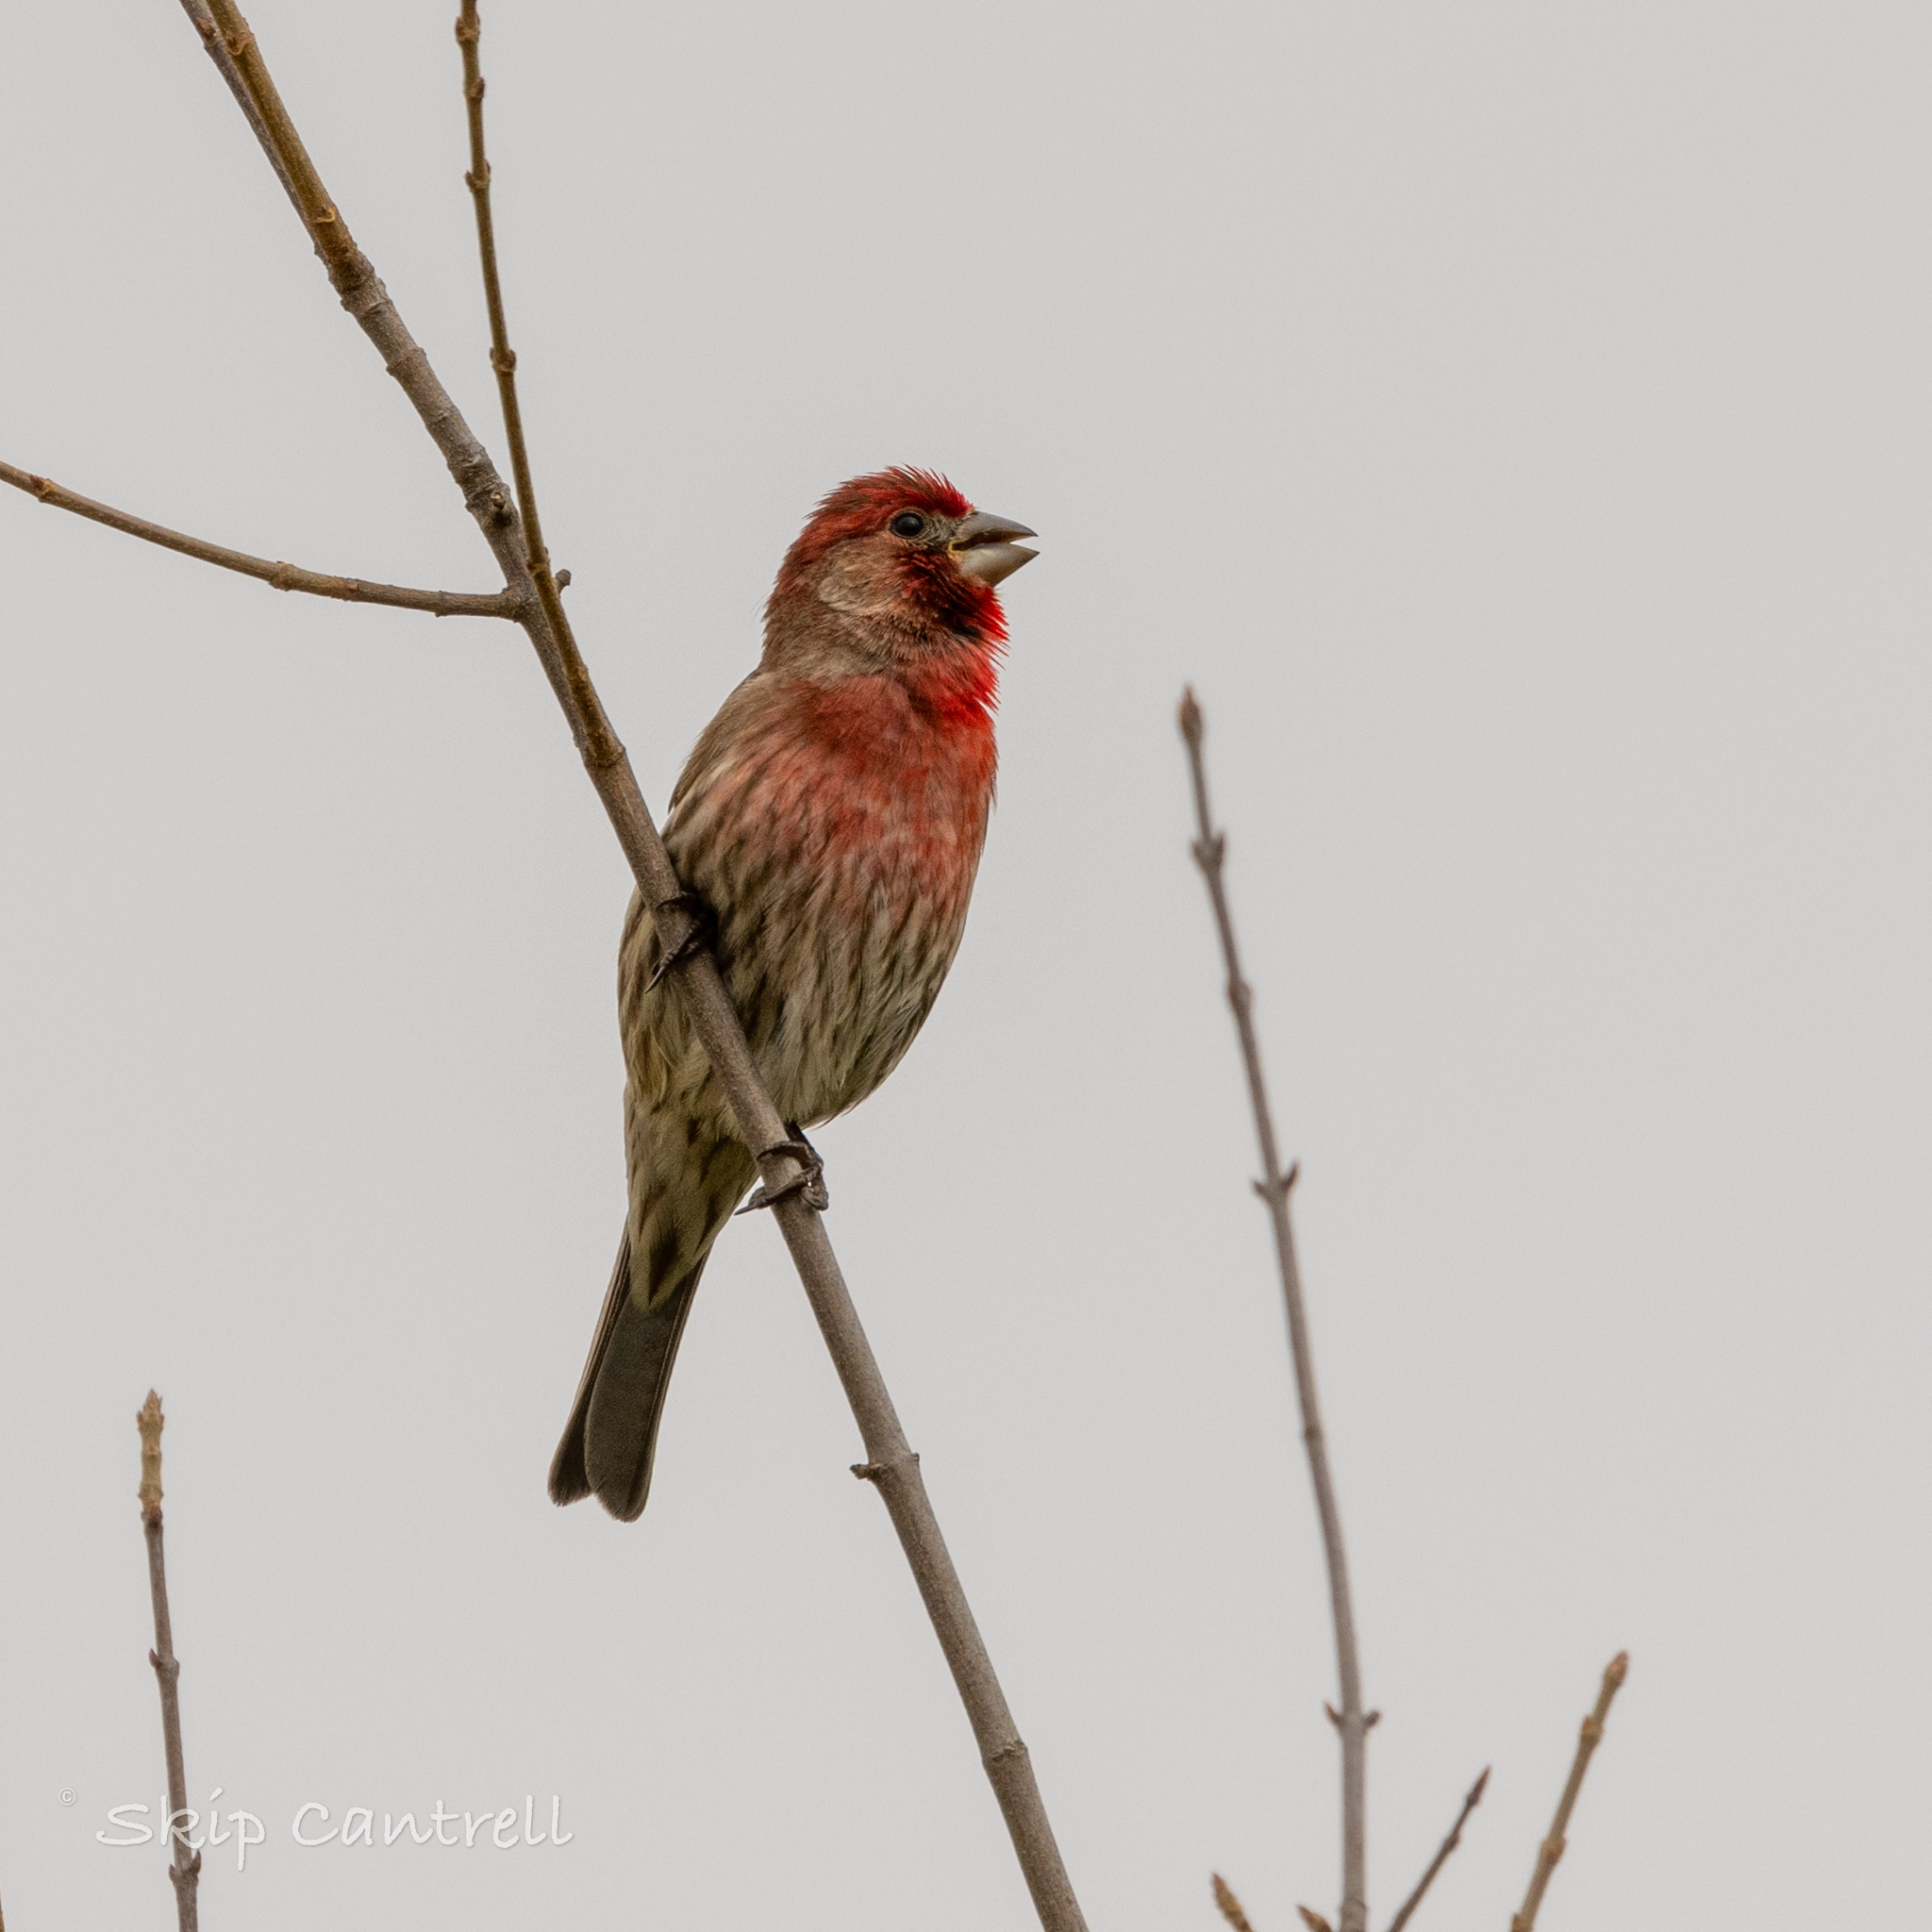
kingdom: Animalia
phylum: Chordata
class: Aves
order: Passeriformes
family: Fringillidae
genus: Haemorhous
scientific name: Haemorhous mexicanus
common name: House finch
